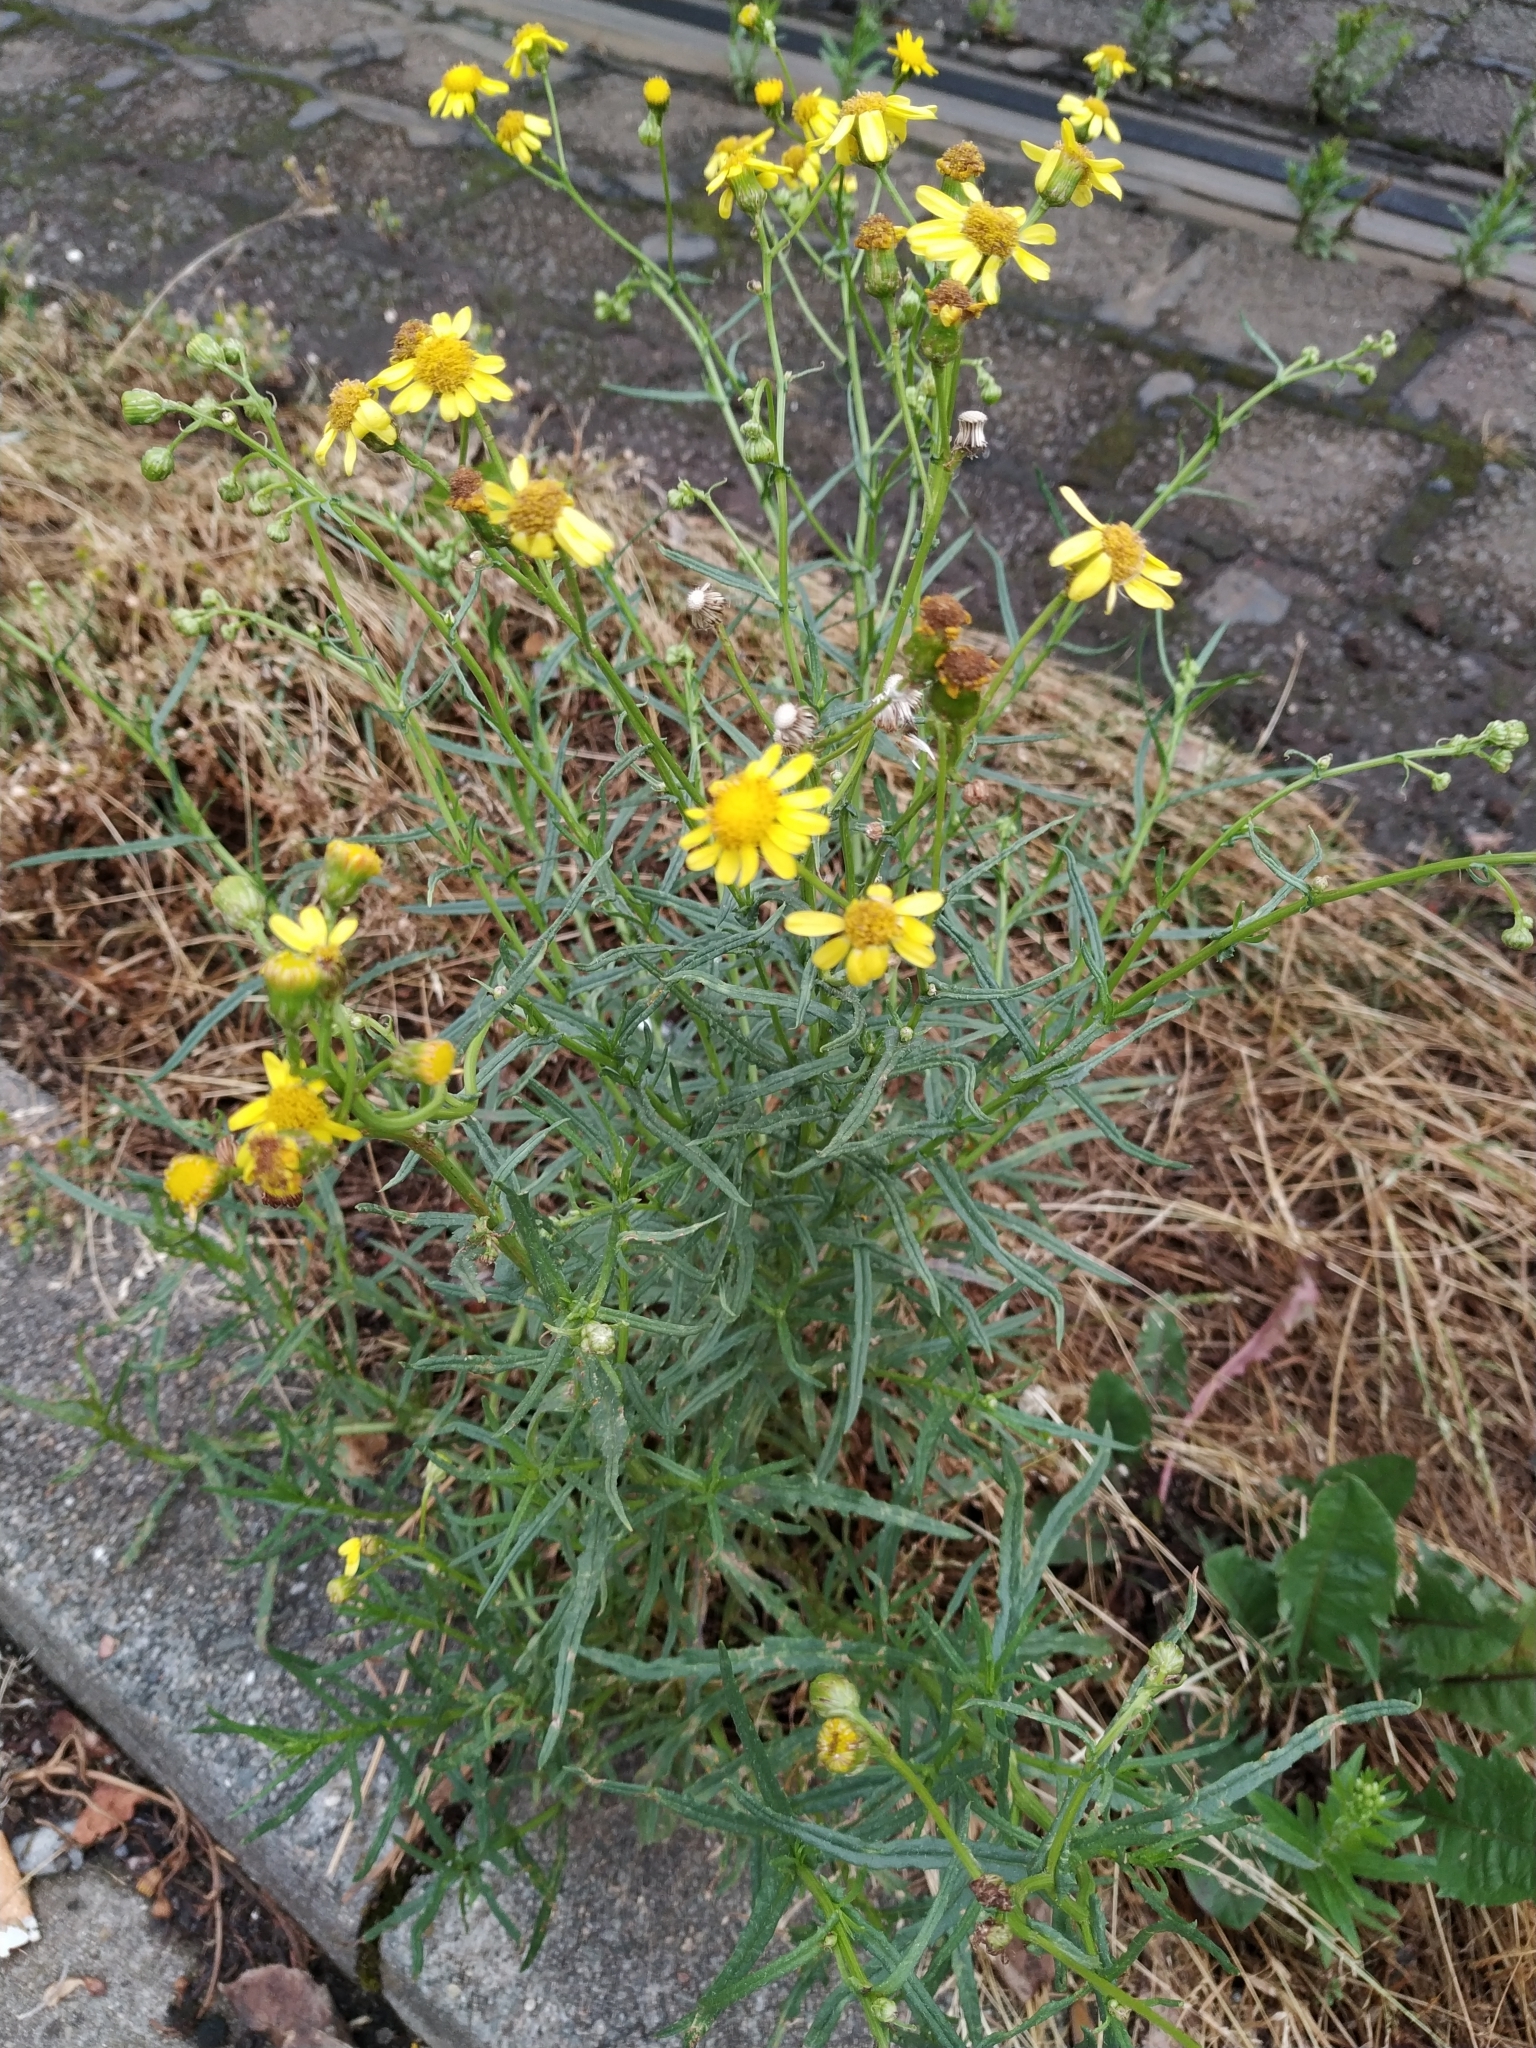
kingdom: Plantae
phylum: Tracheophyta
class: Magnoliopsida
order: Asterales
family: Asteraceae
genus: Senecio
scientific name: Senecio inaequidens
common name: Narrow-leaved ragwort
